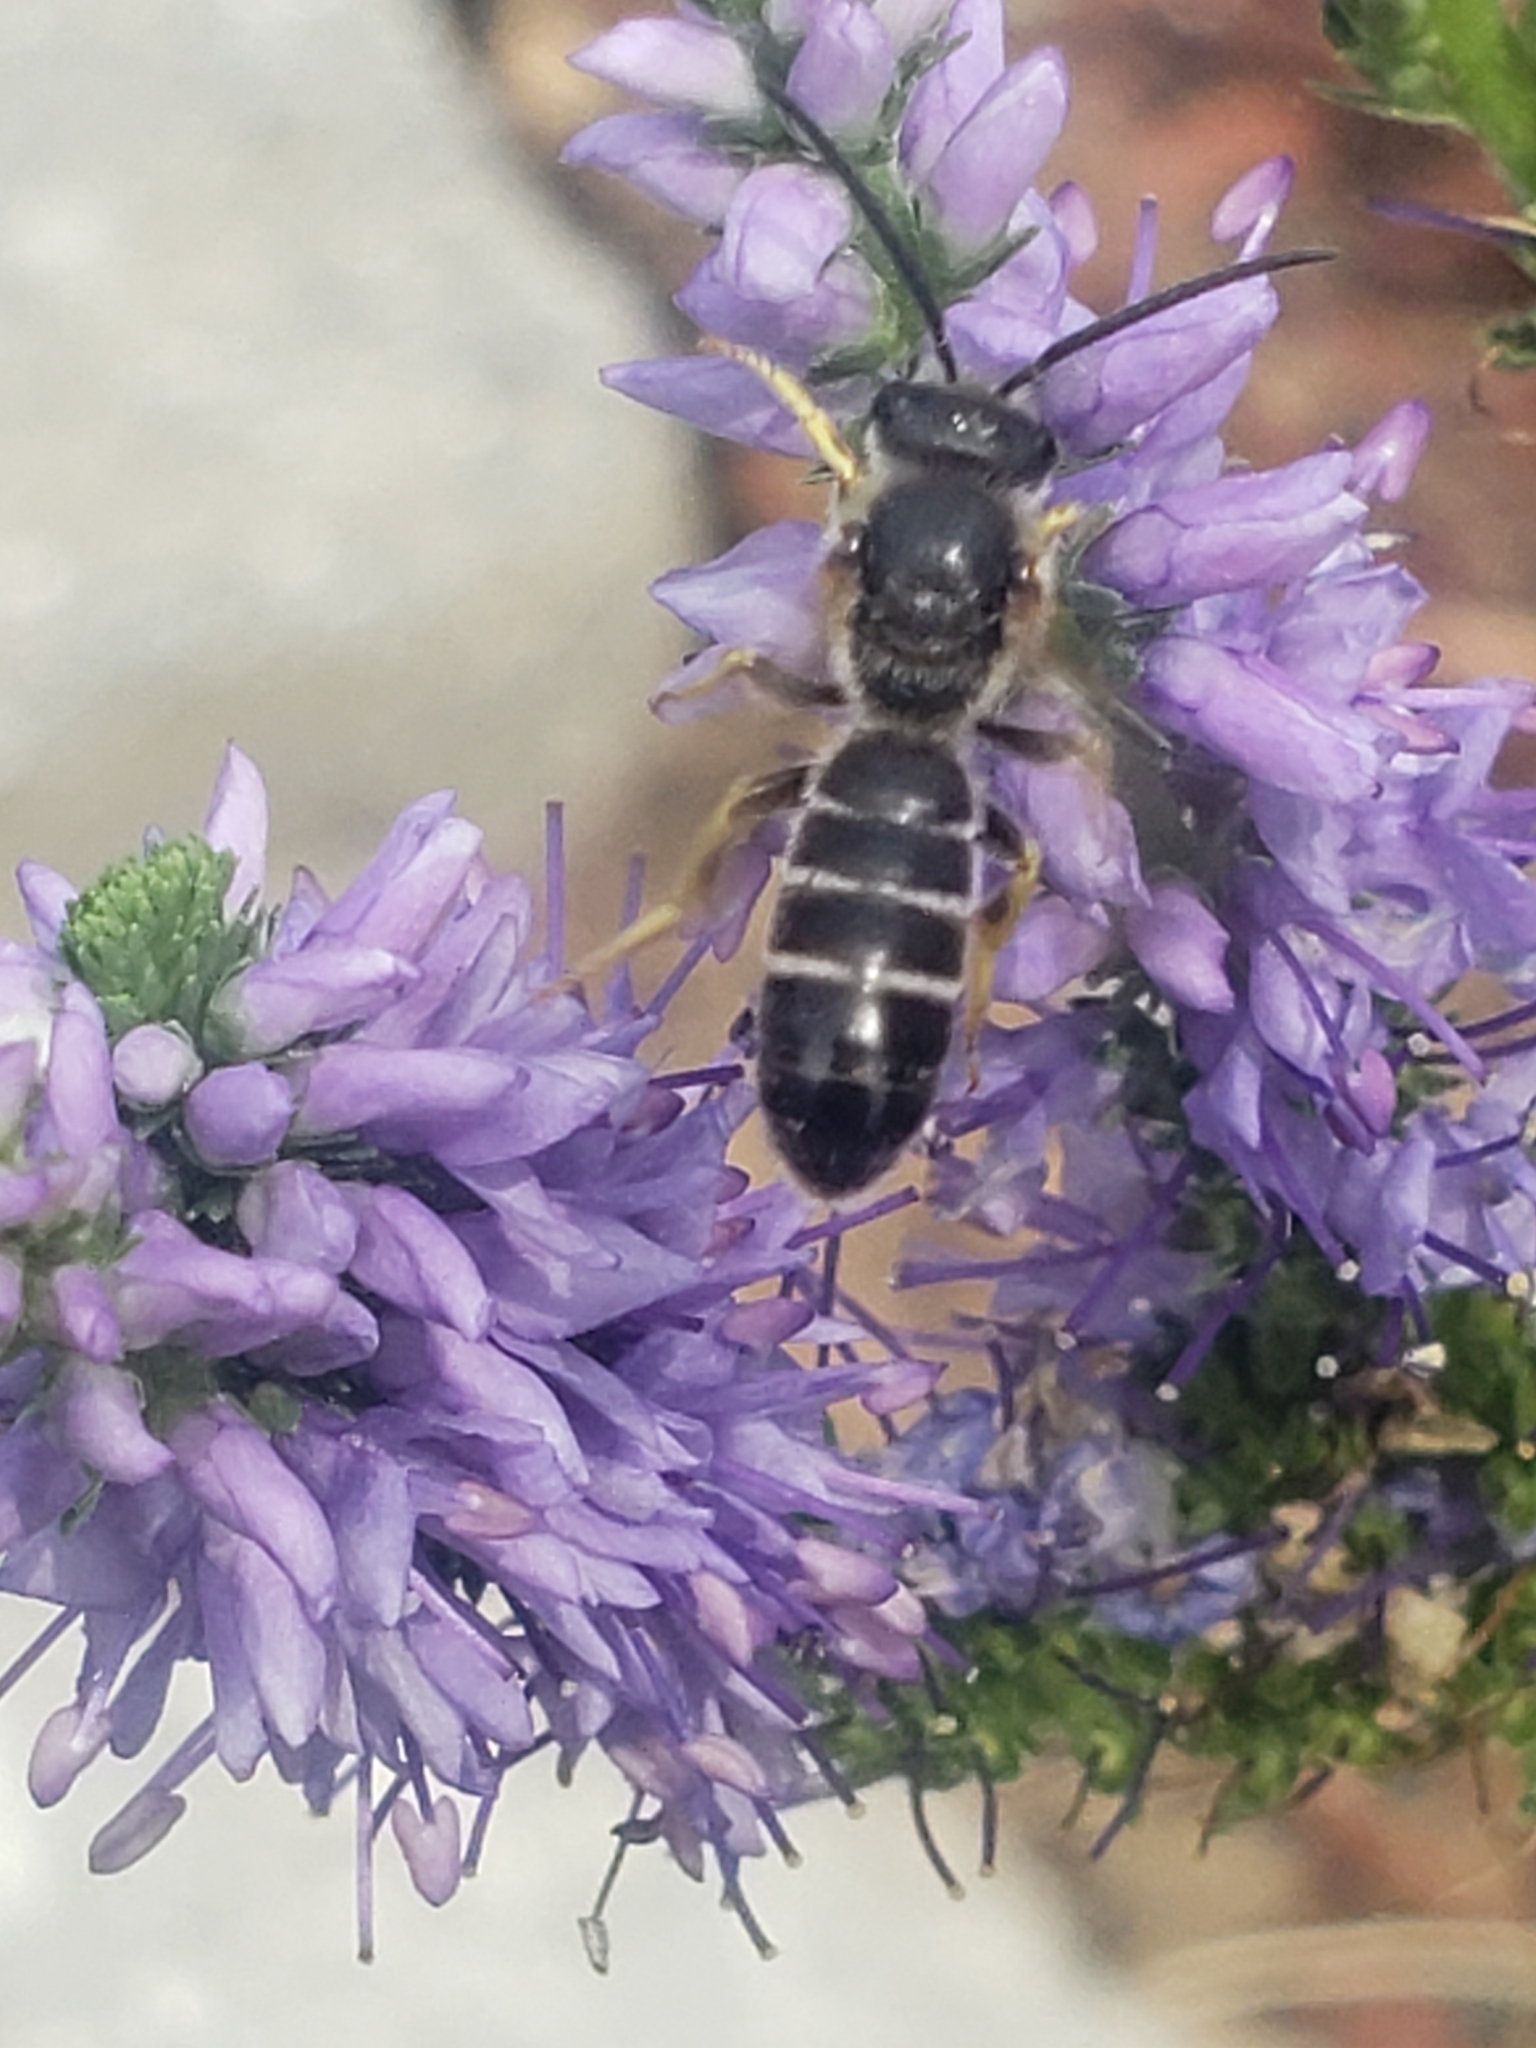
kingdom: Animalia
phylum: Arthropoda
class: Insecta
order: Hymenoptera
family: Halictidae
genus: Halictus
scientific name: Halictus rubicundus
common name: Orange-legged furrow bee
